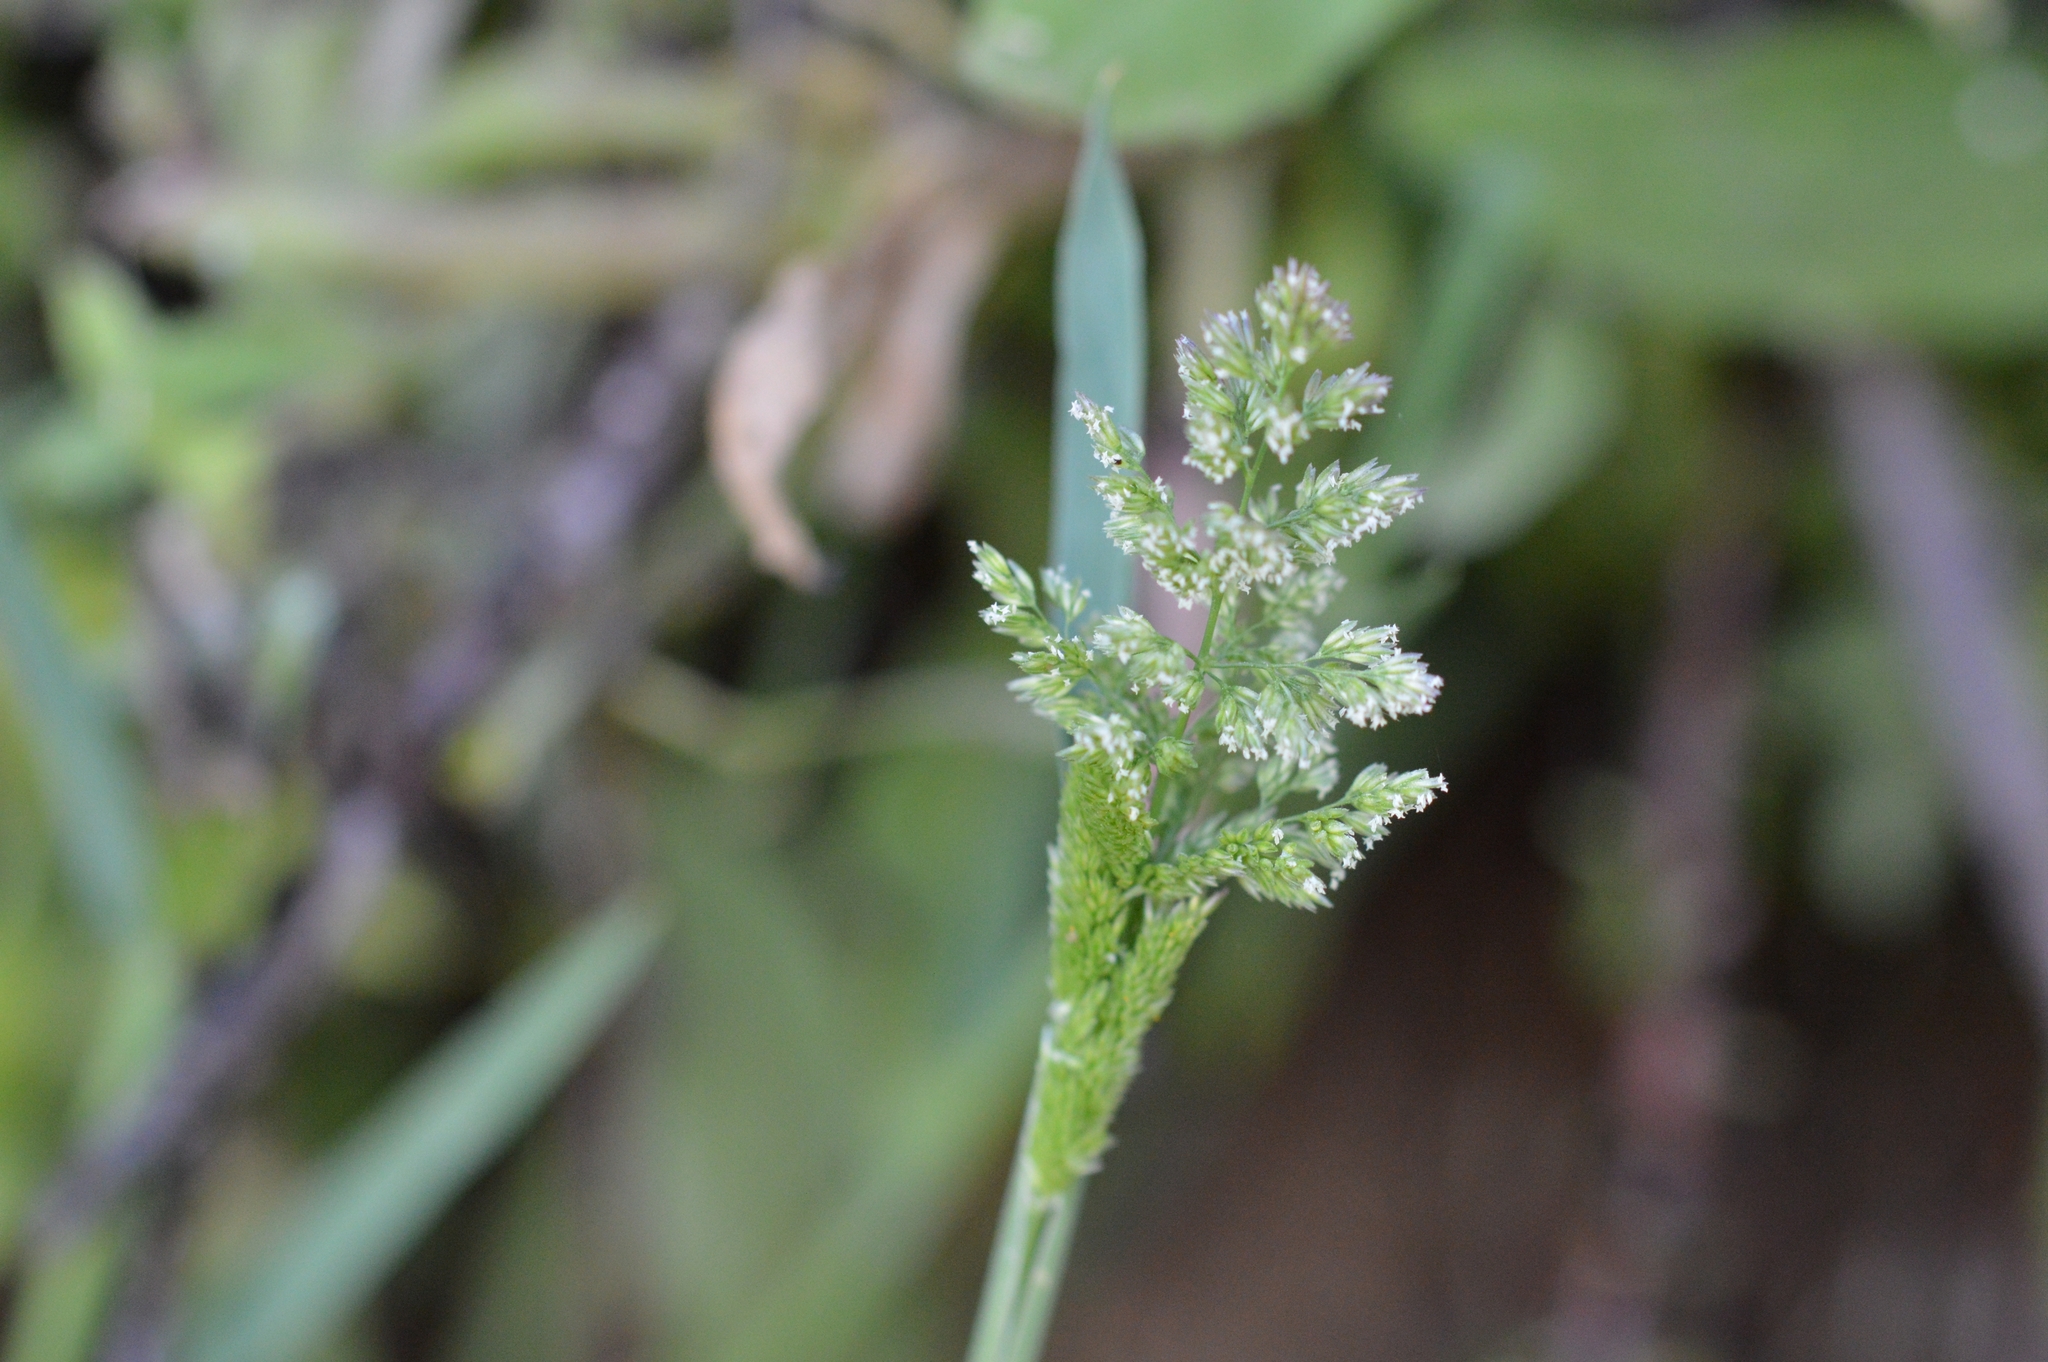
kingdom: Plantae
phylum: Tracheophyta
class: Liliopsida
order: Poales
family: Poaceae
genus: Polypogon
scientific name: Polypogon viridis
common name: Water bent
